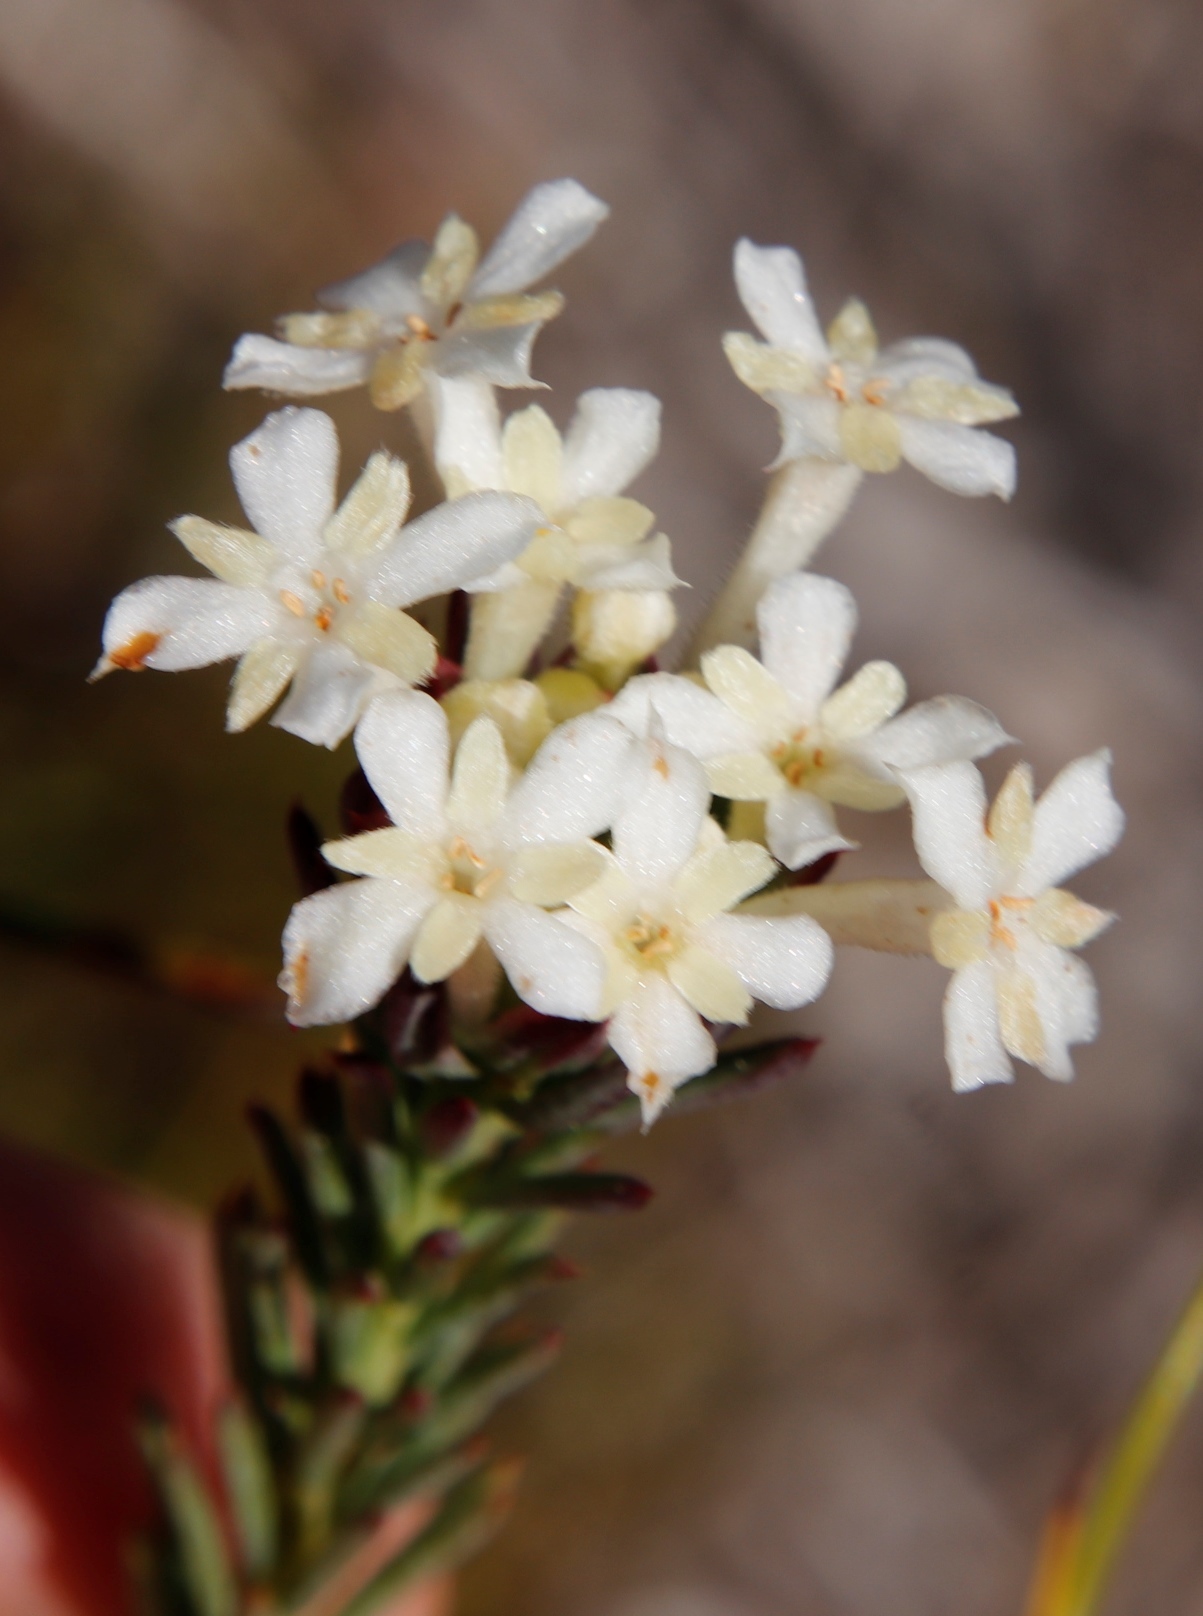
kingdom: Plantae
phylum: Tracheophyta
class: Magnoliopsida
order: Malvales
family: Thymelaeaceae
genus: Gnidia
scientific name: Gnidia pinifolia
